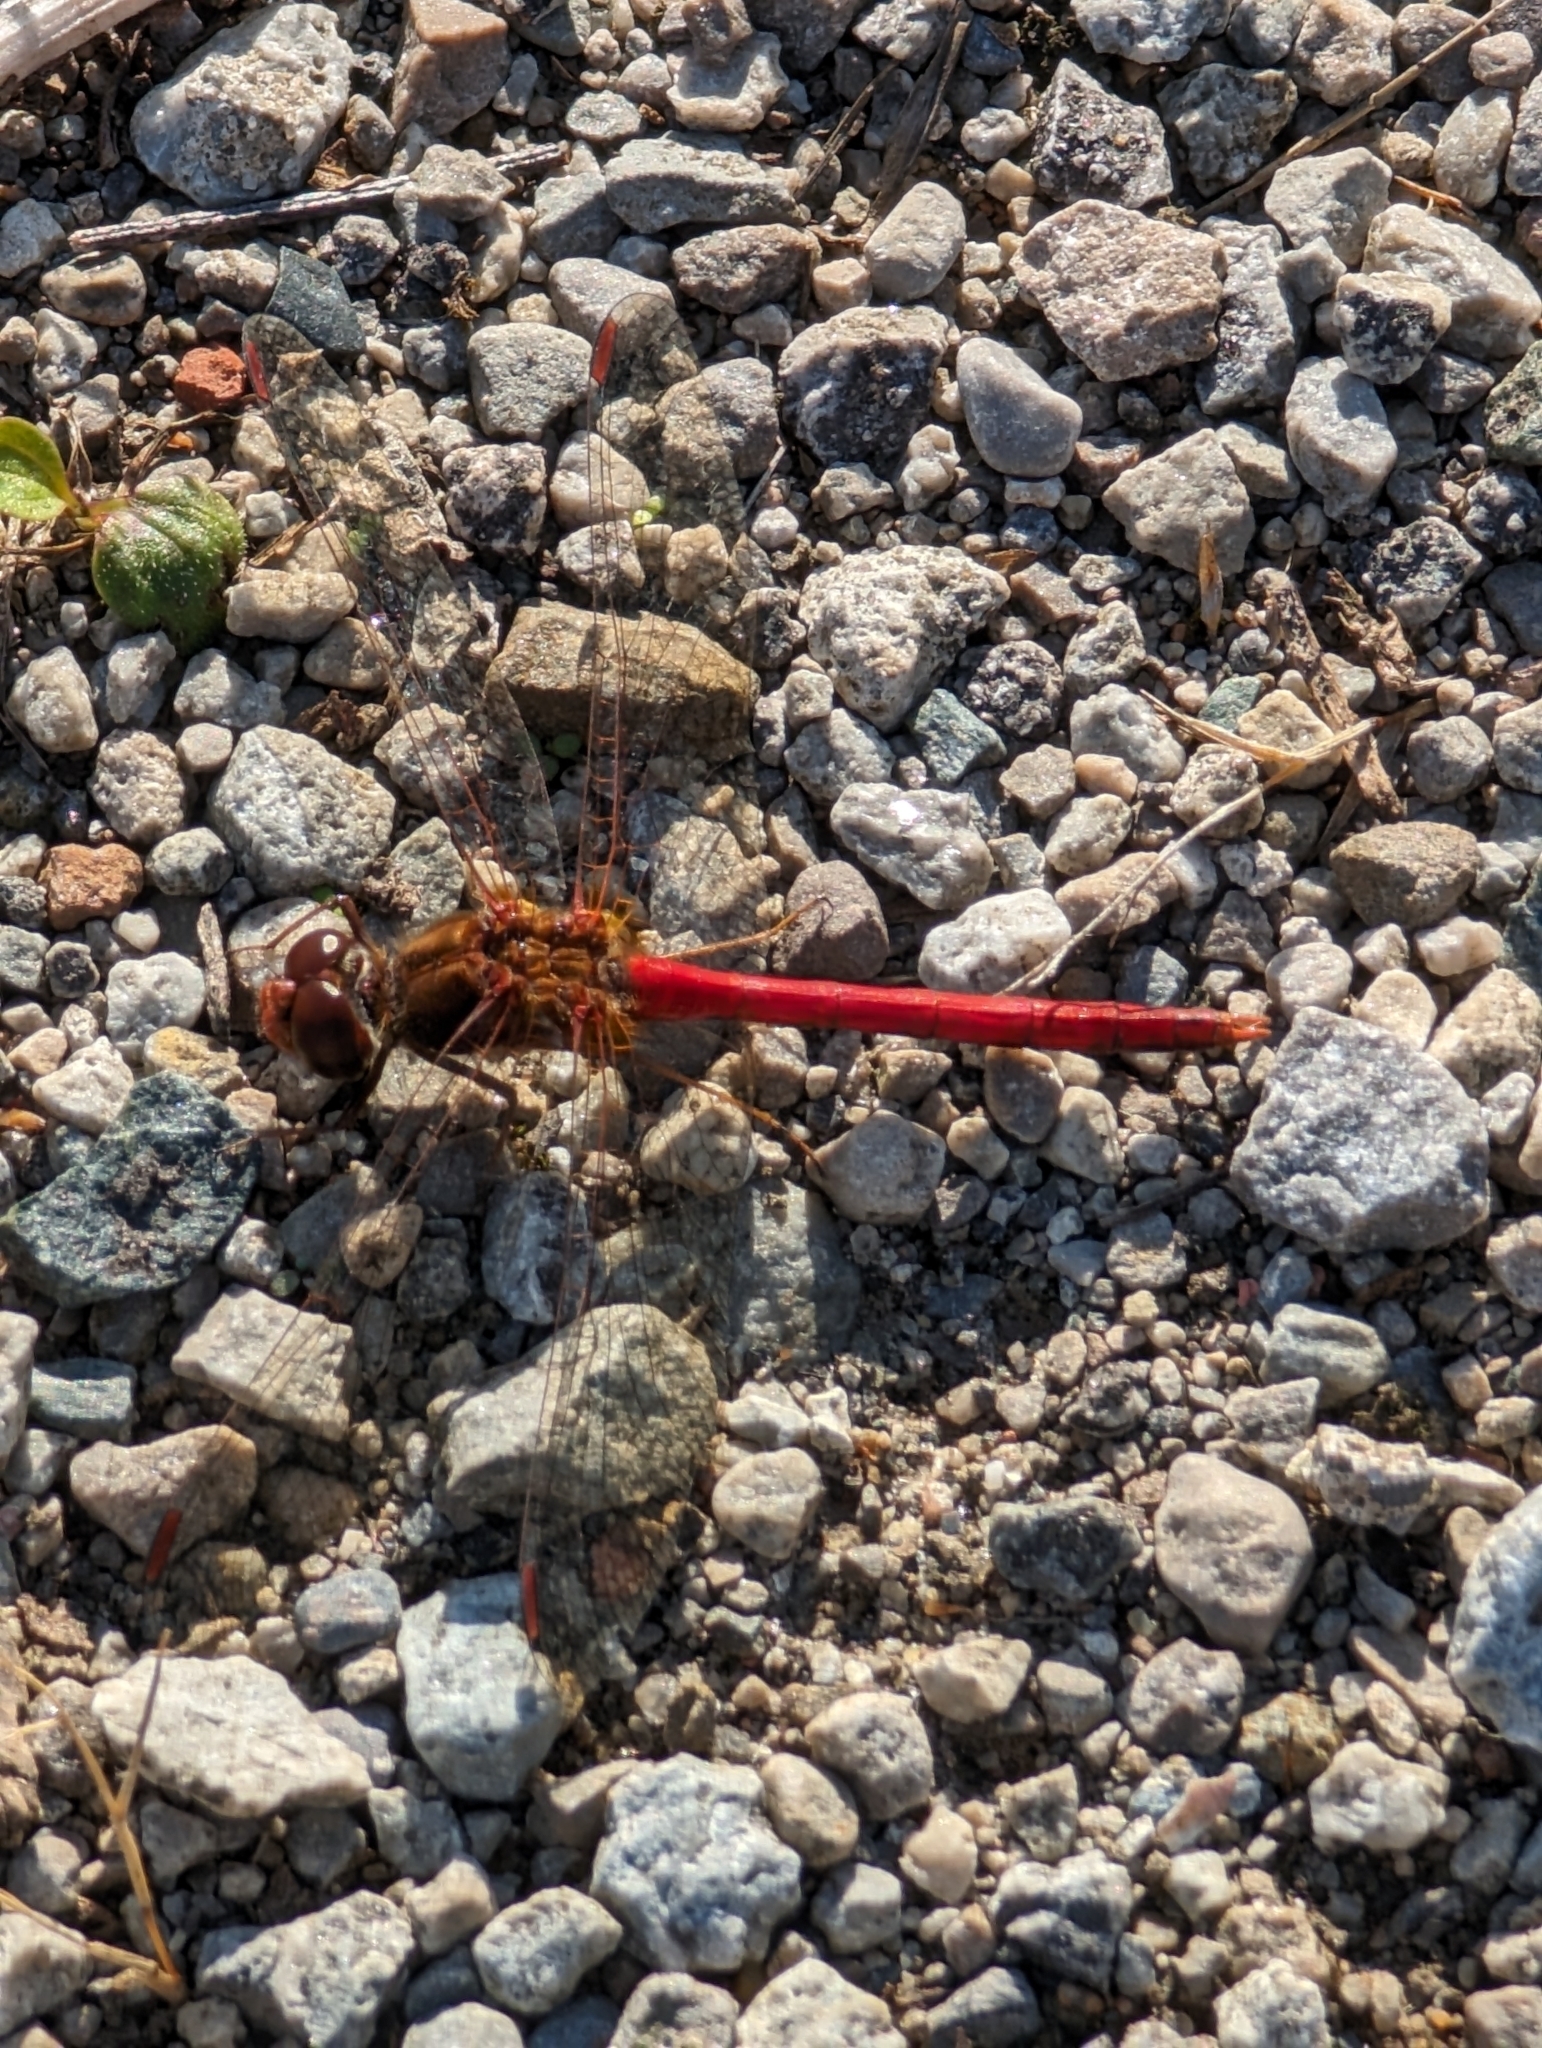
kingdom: Animalia
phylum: Arthropoda
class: Insecta
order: Odonata
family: Libellulidae
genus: Sympetrum
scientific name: Sympetrum vicinum
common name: Autumn meadowhawk
